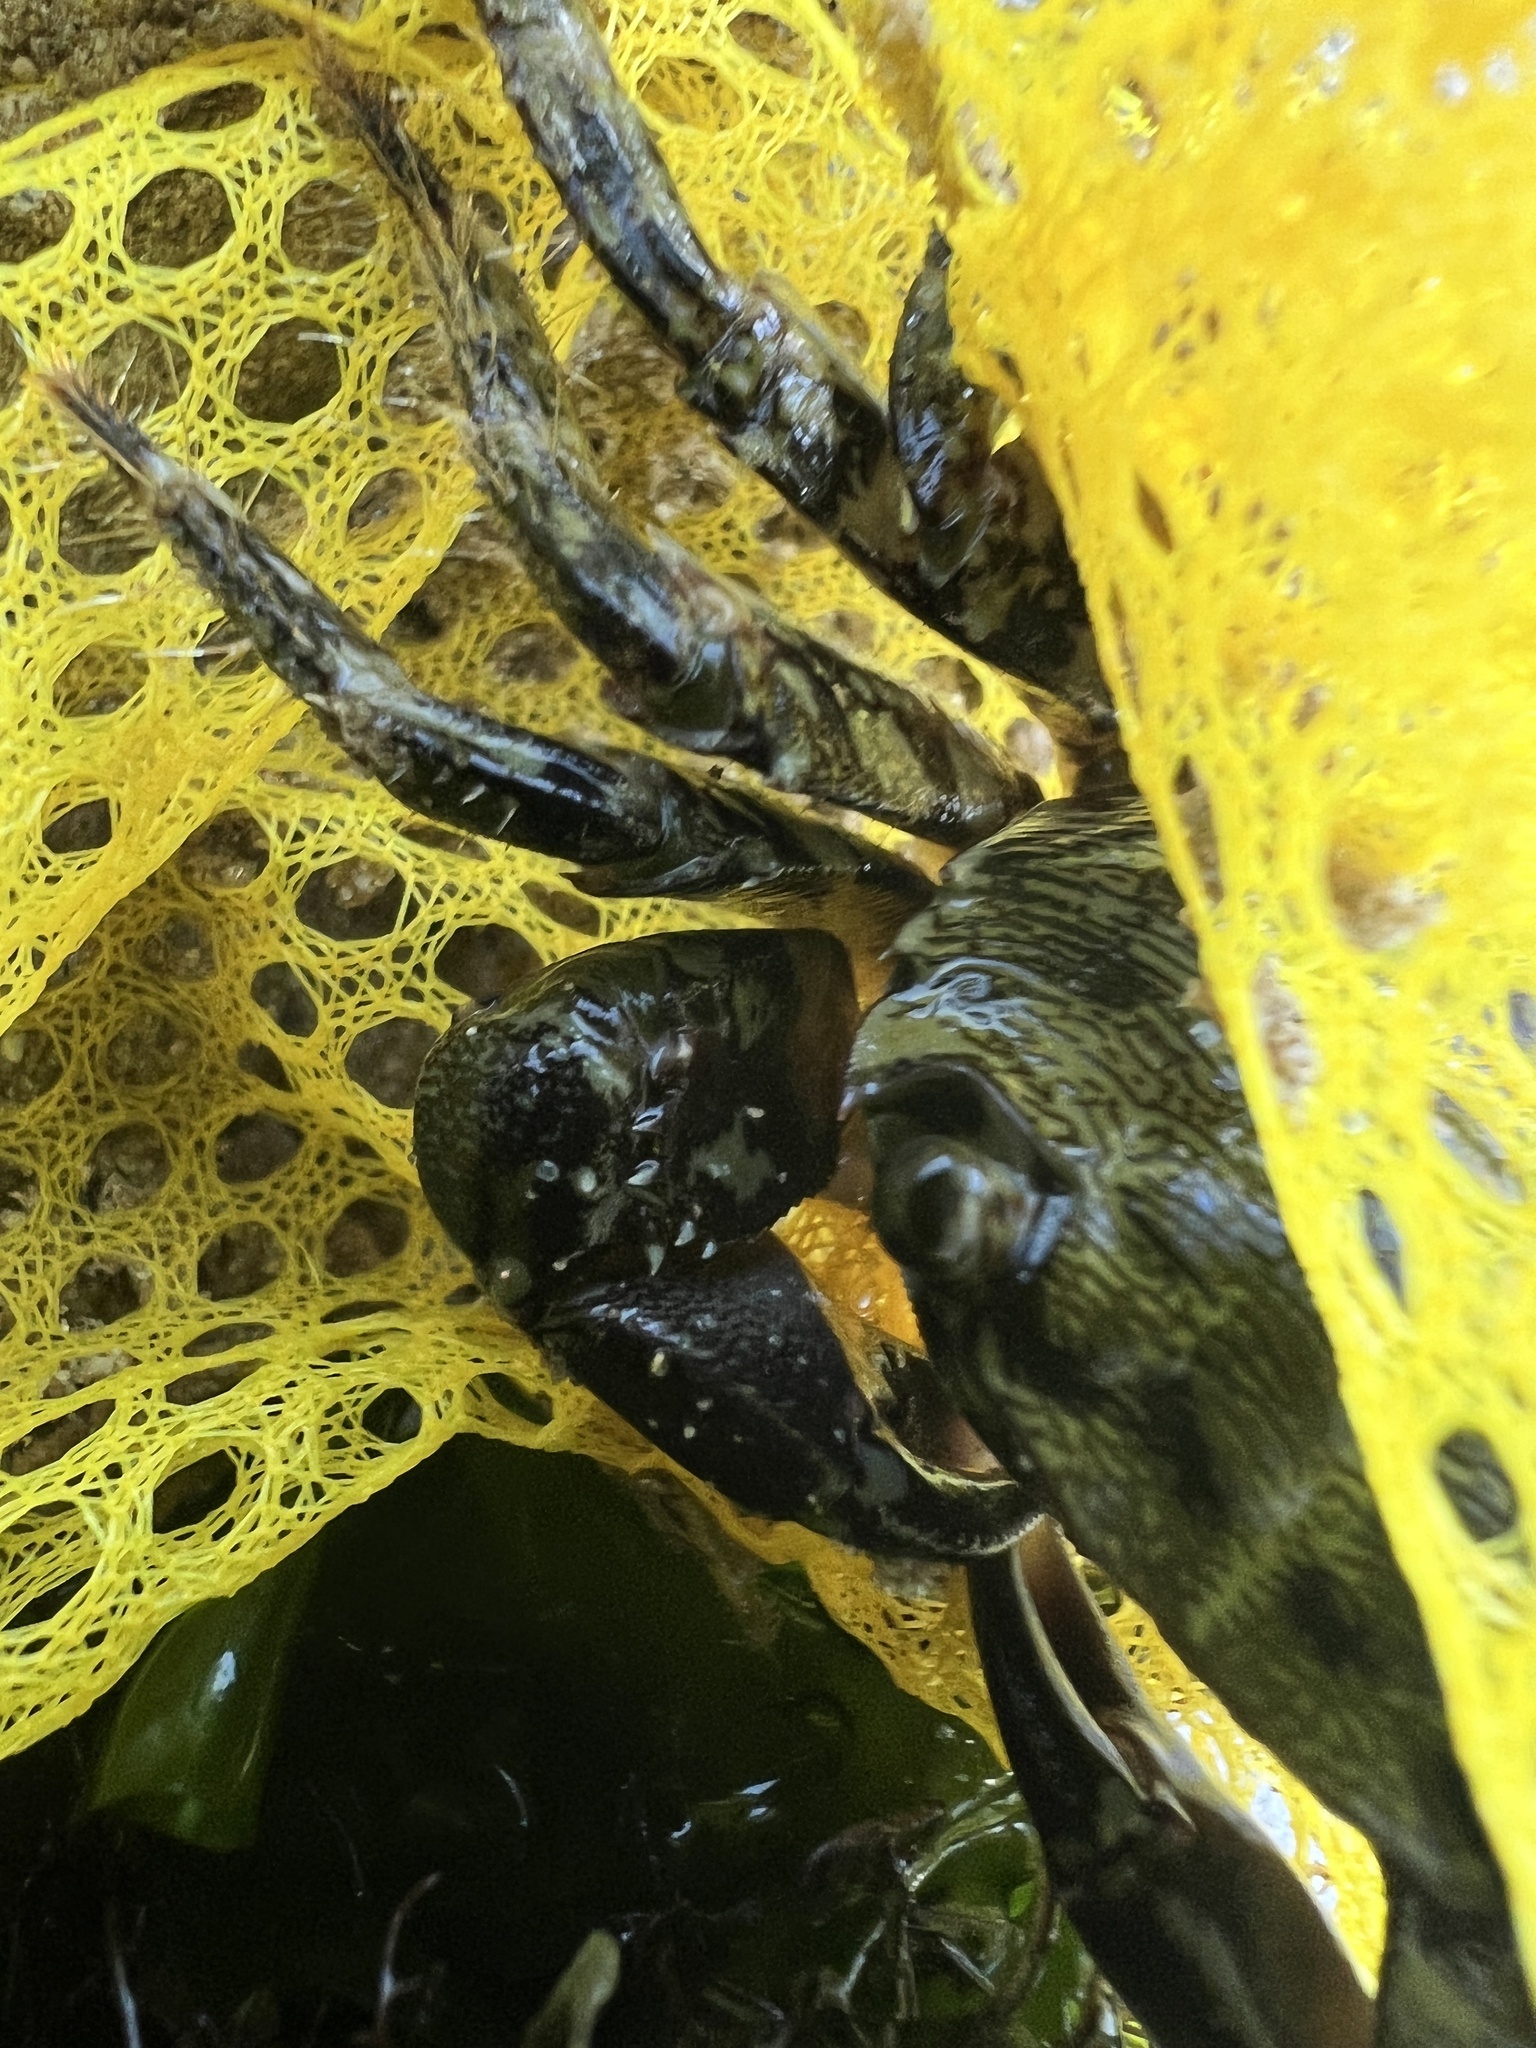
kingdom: Animalia
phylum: Arthropoda
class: Malacostraca
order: Decapoda
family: Grapsidae
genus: Pachygrapsus
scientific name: Pachygrapsus marmoratus
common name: Marbled rock crab
